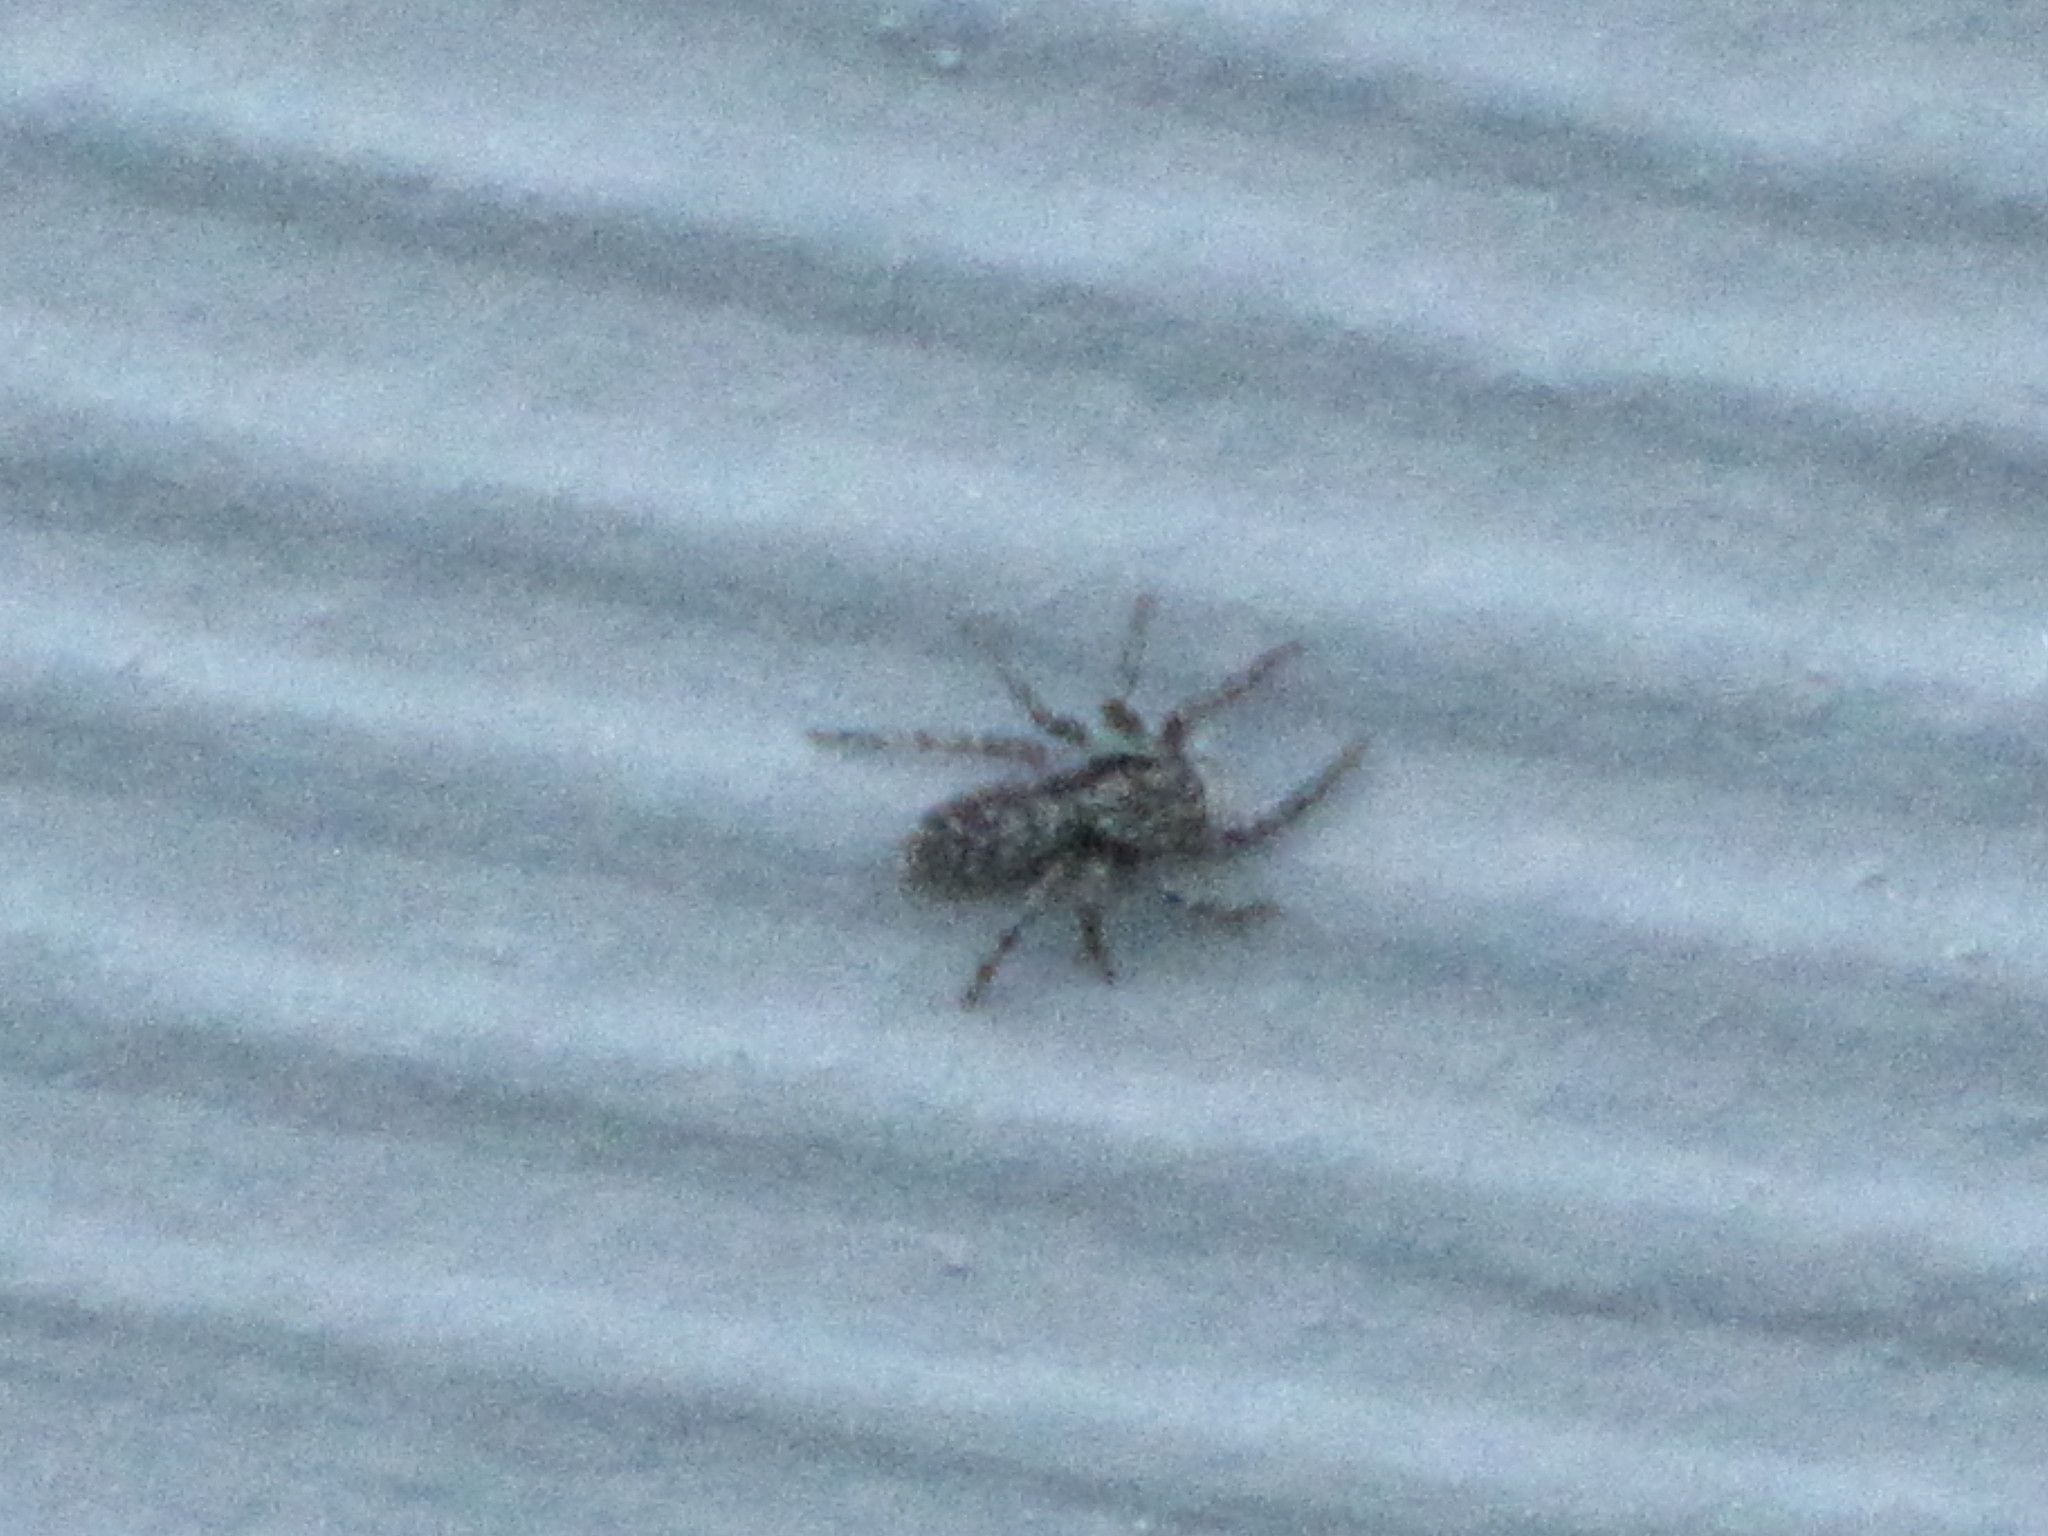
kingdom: Animalia
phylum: Arthropoda
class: Arachnida
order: Araneae
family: Salticidae
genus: Platycryptus
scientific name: Platycryptus californicus
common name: Jumping spiders
